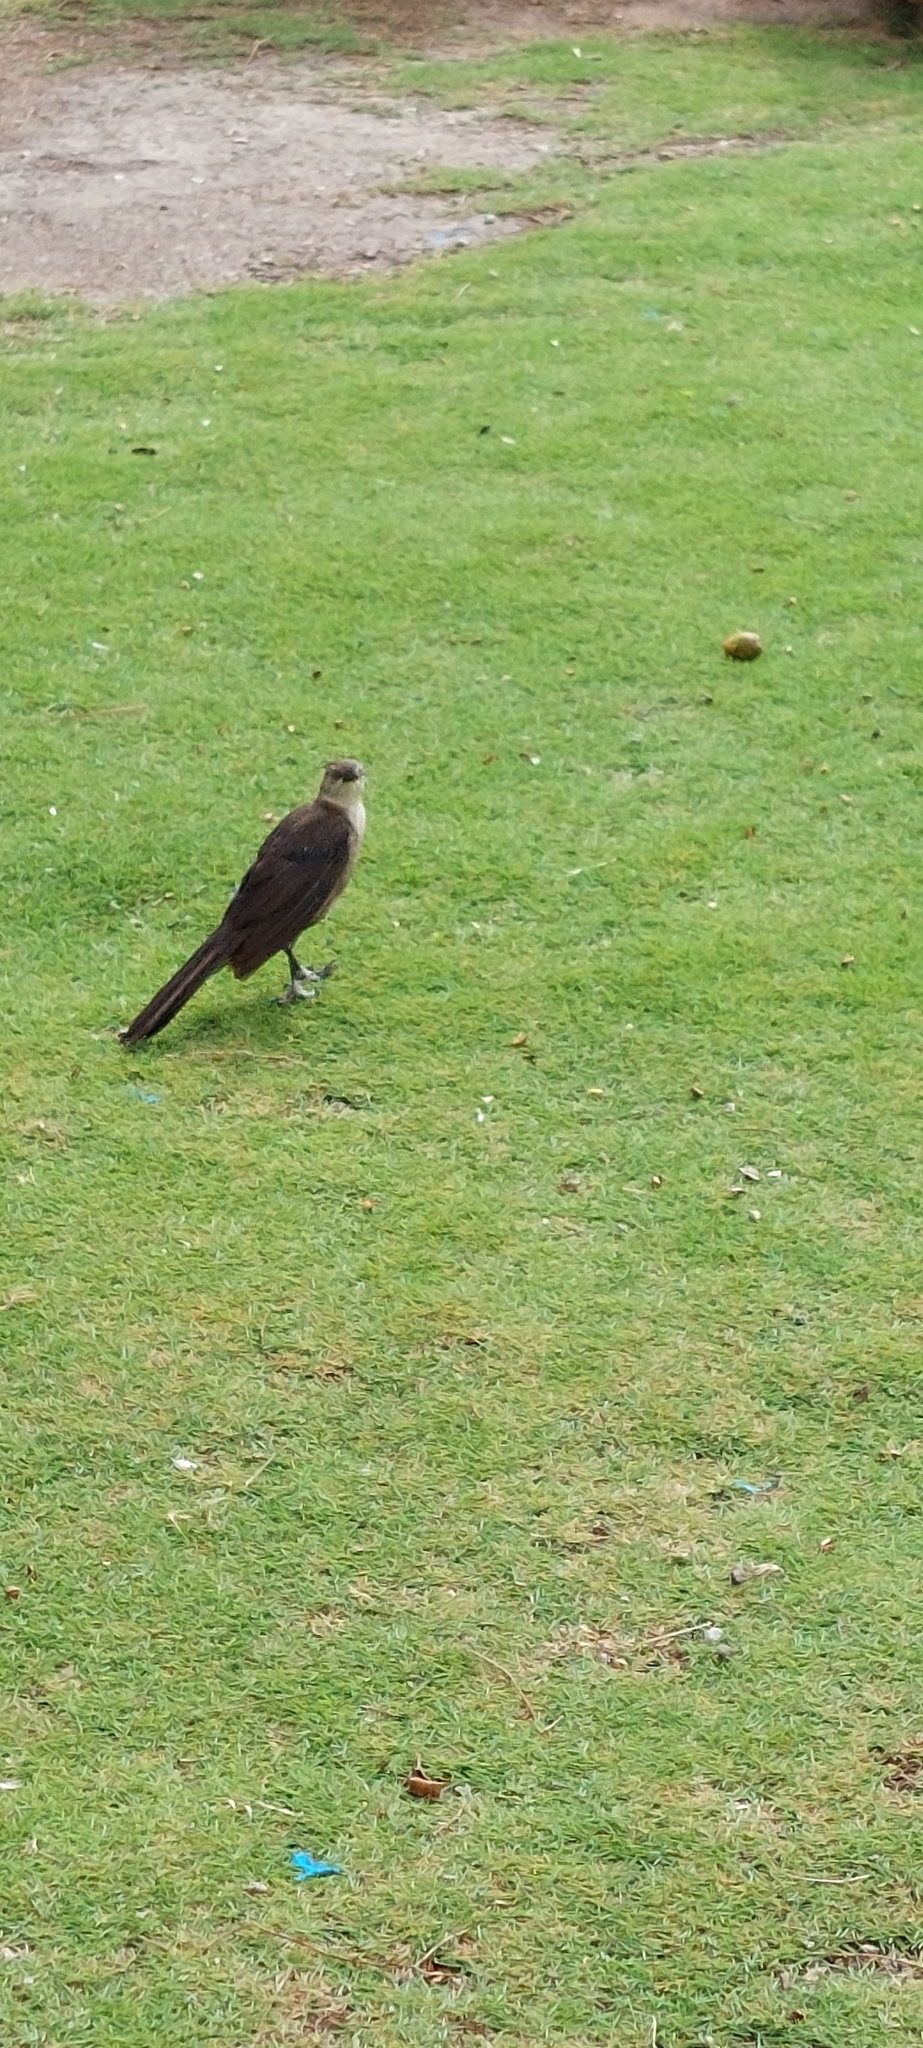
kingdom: Animalia
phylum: Chordata
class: Aves
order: Passeriformes
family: Icteridae
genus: Quiscalus
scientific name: Quiscalus mexicanus
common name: Great-tailed grackle
